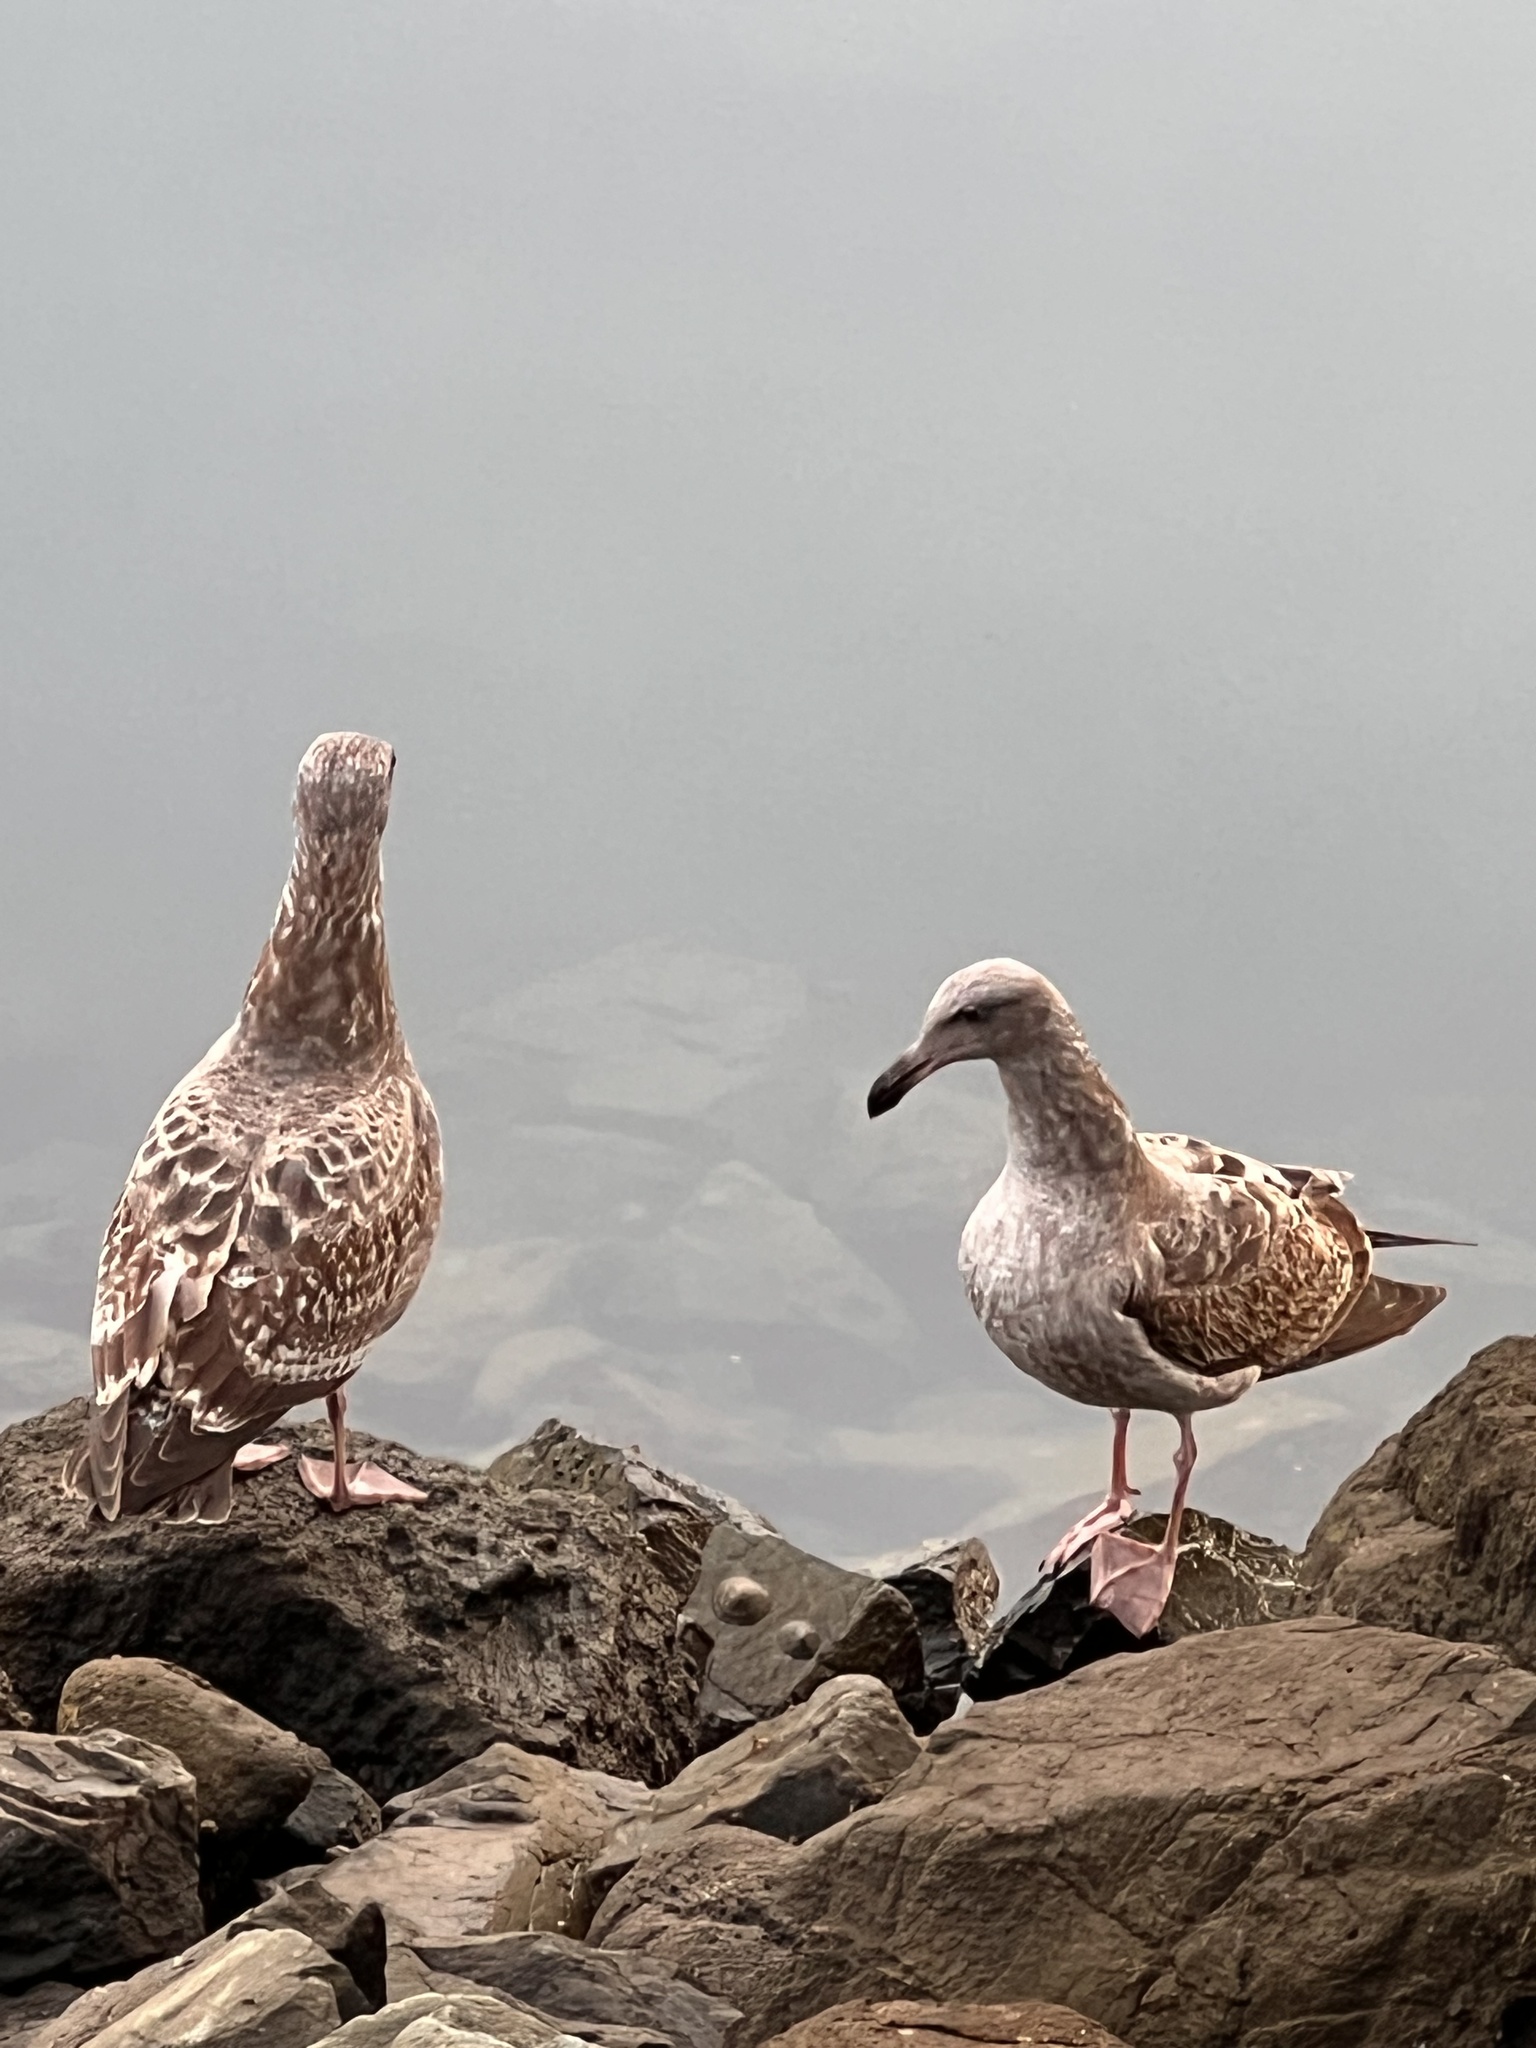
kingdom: Animalia
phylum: Chordata
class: Aves
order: Charadriiformes
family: Laridae
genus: Larus
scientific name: Larus occidentalis
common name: Western gull
